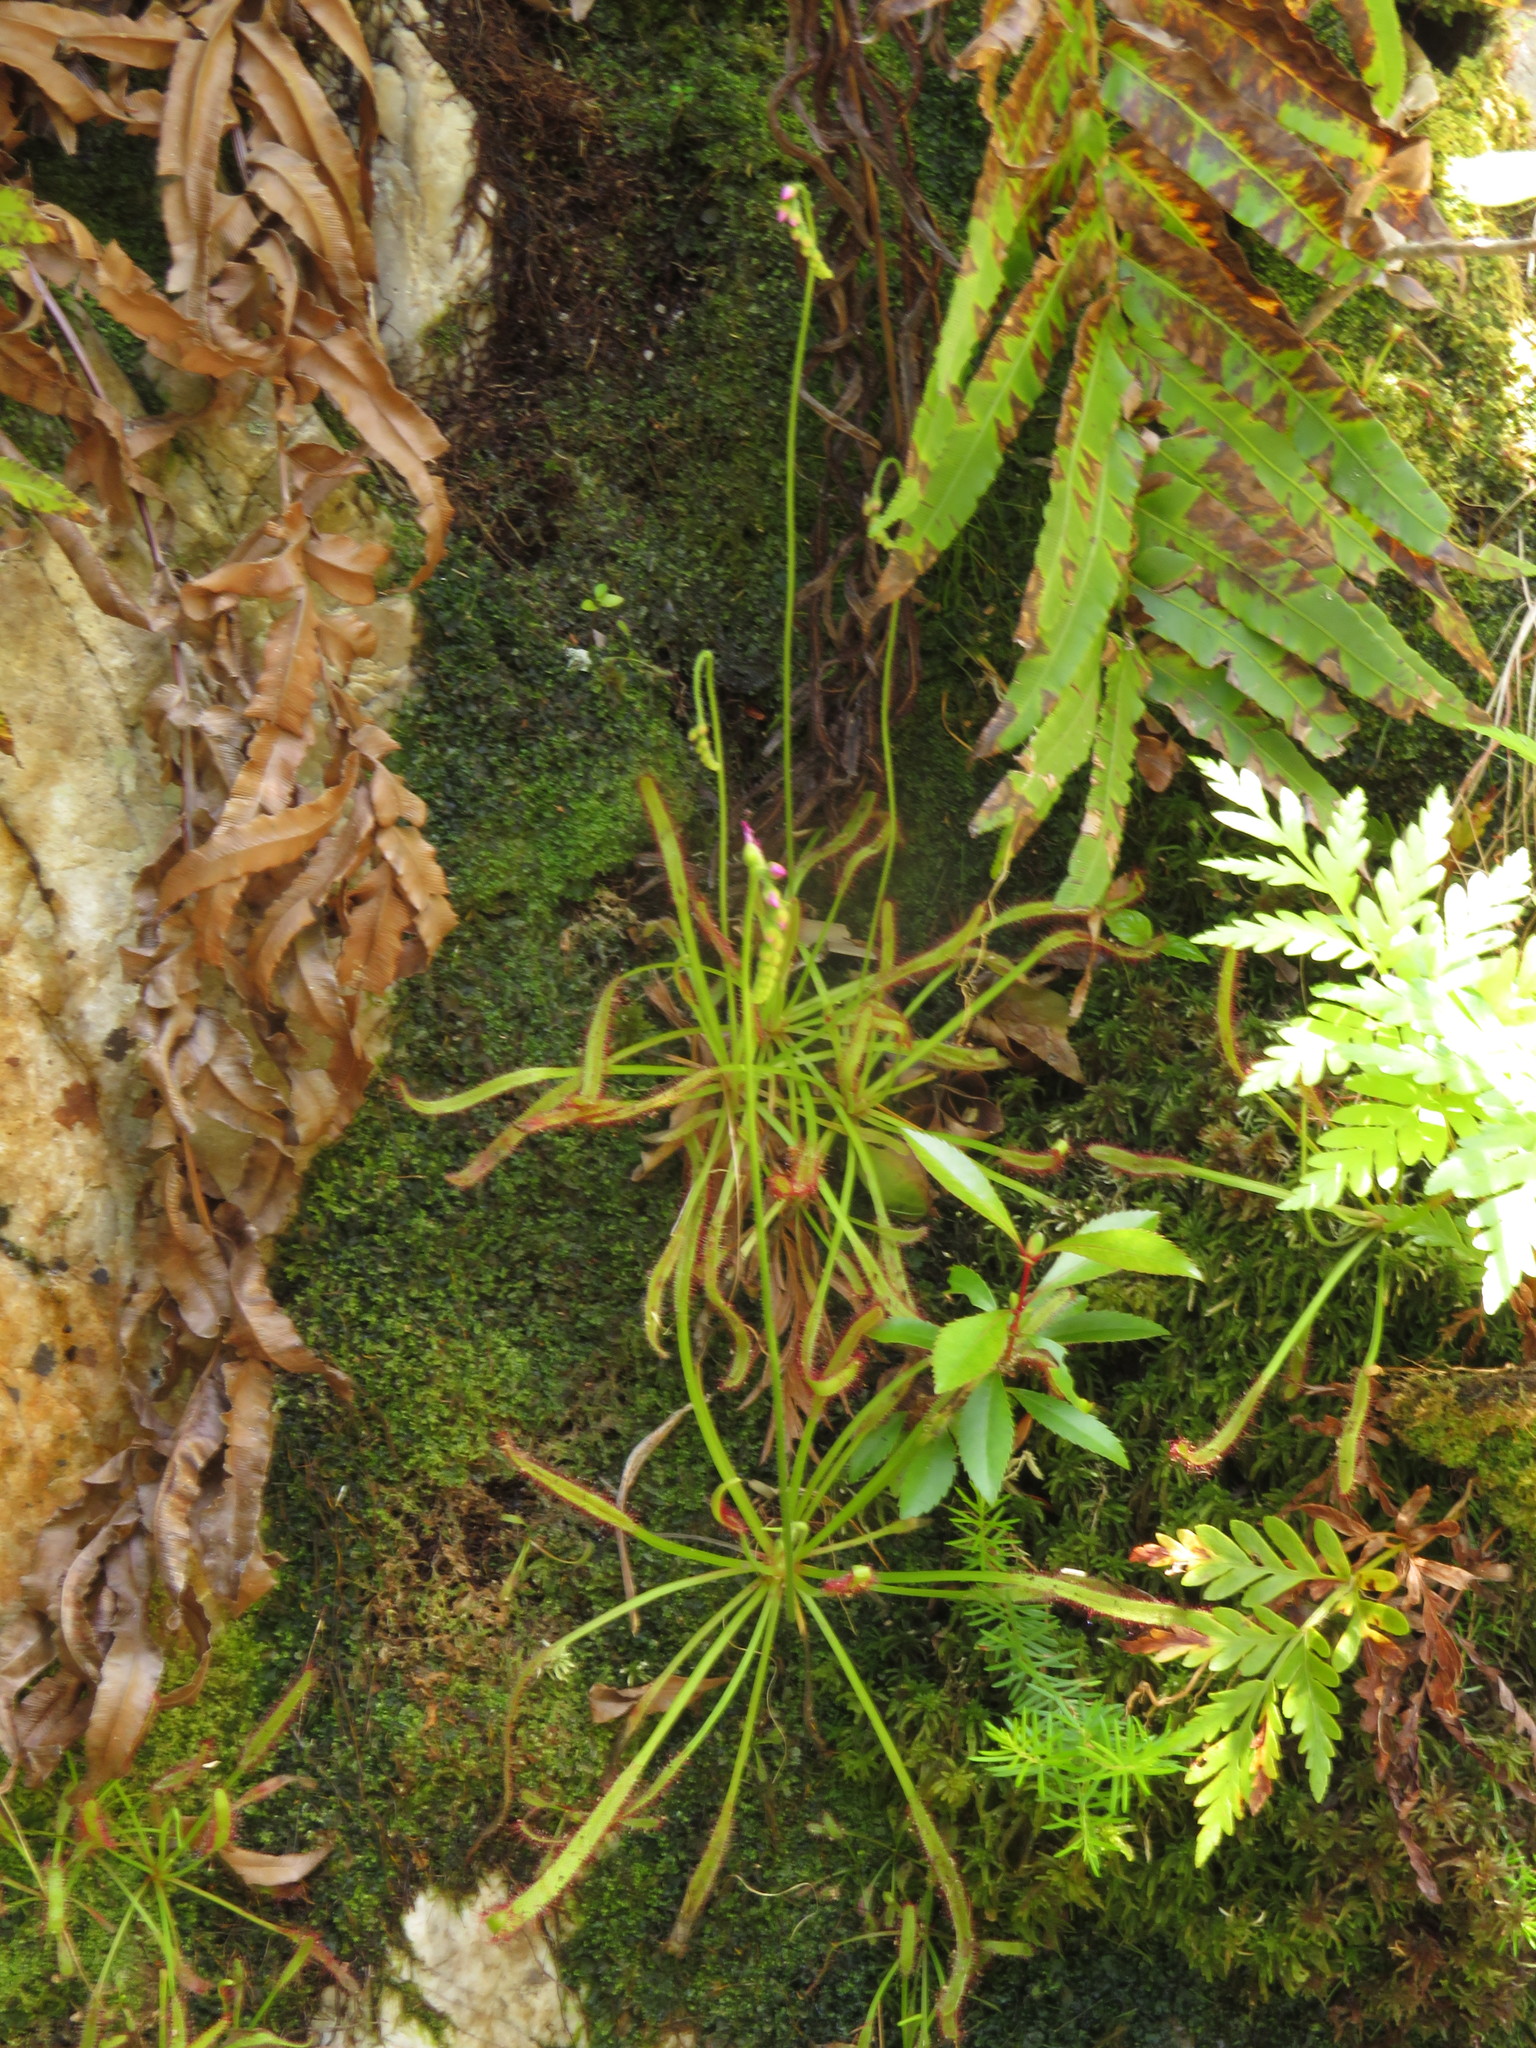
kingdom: Plantae
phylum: Tracheophyta
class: Magnoliopsida
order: Caryophyllales
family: Droseraceae
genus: Drosera
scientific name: Drosera capensis
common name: Cape sundew
